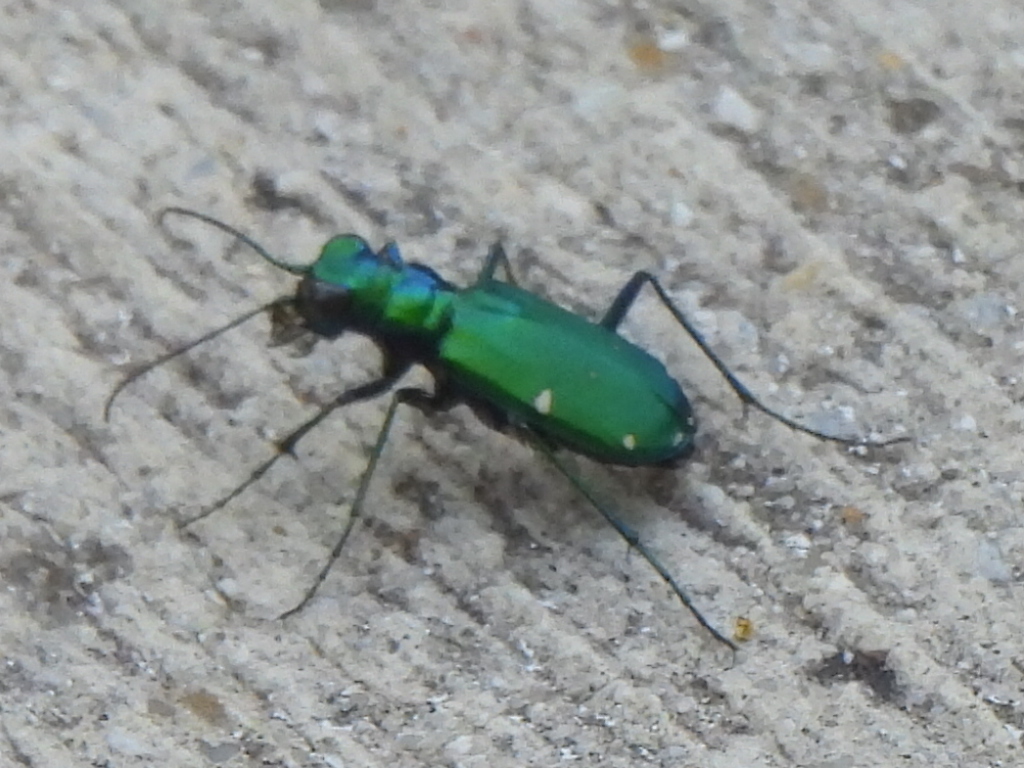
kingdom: Animalia
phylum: Arthropoda
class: Insecta
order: Coleoptera
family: Carabidae
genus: Cicindela
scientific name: Cicindela sexguttata
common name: Six-spotted tiger beetle
